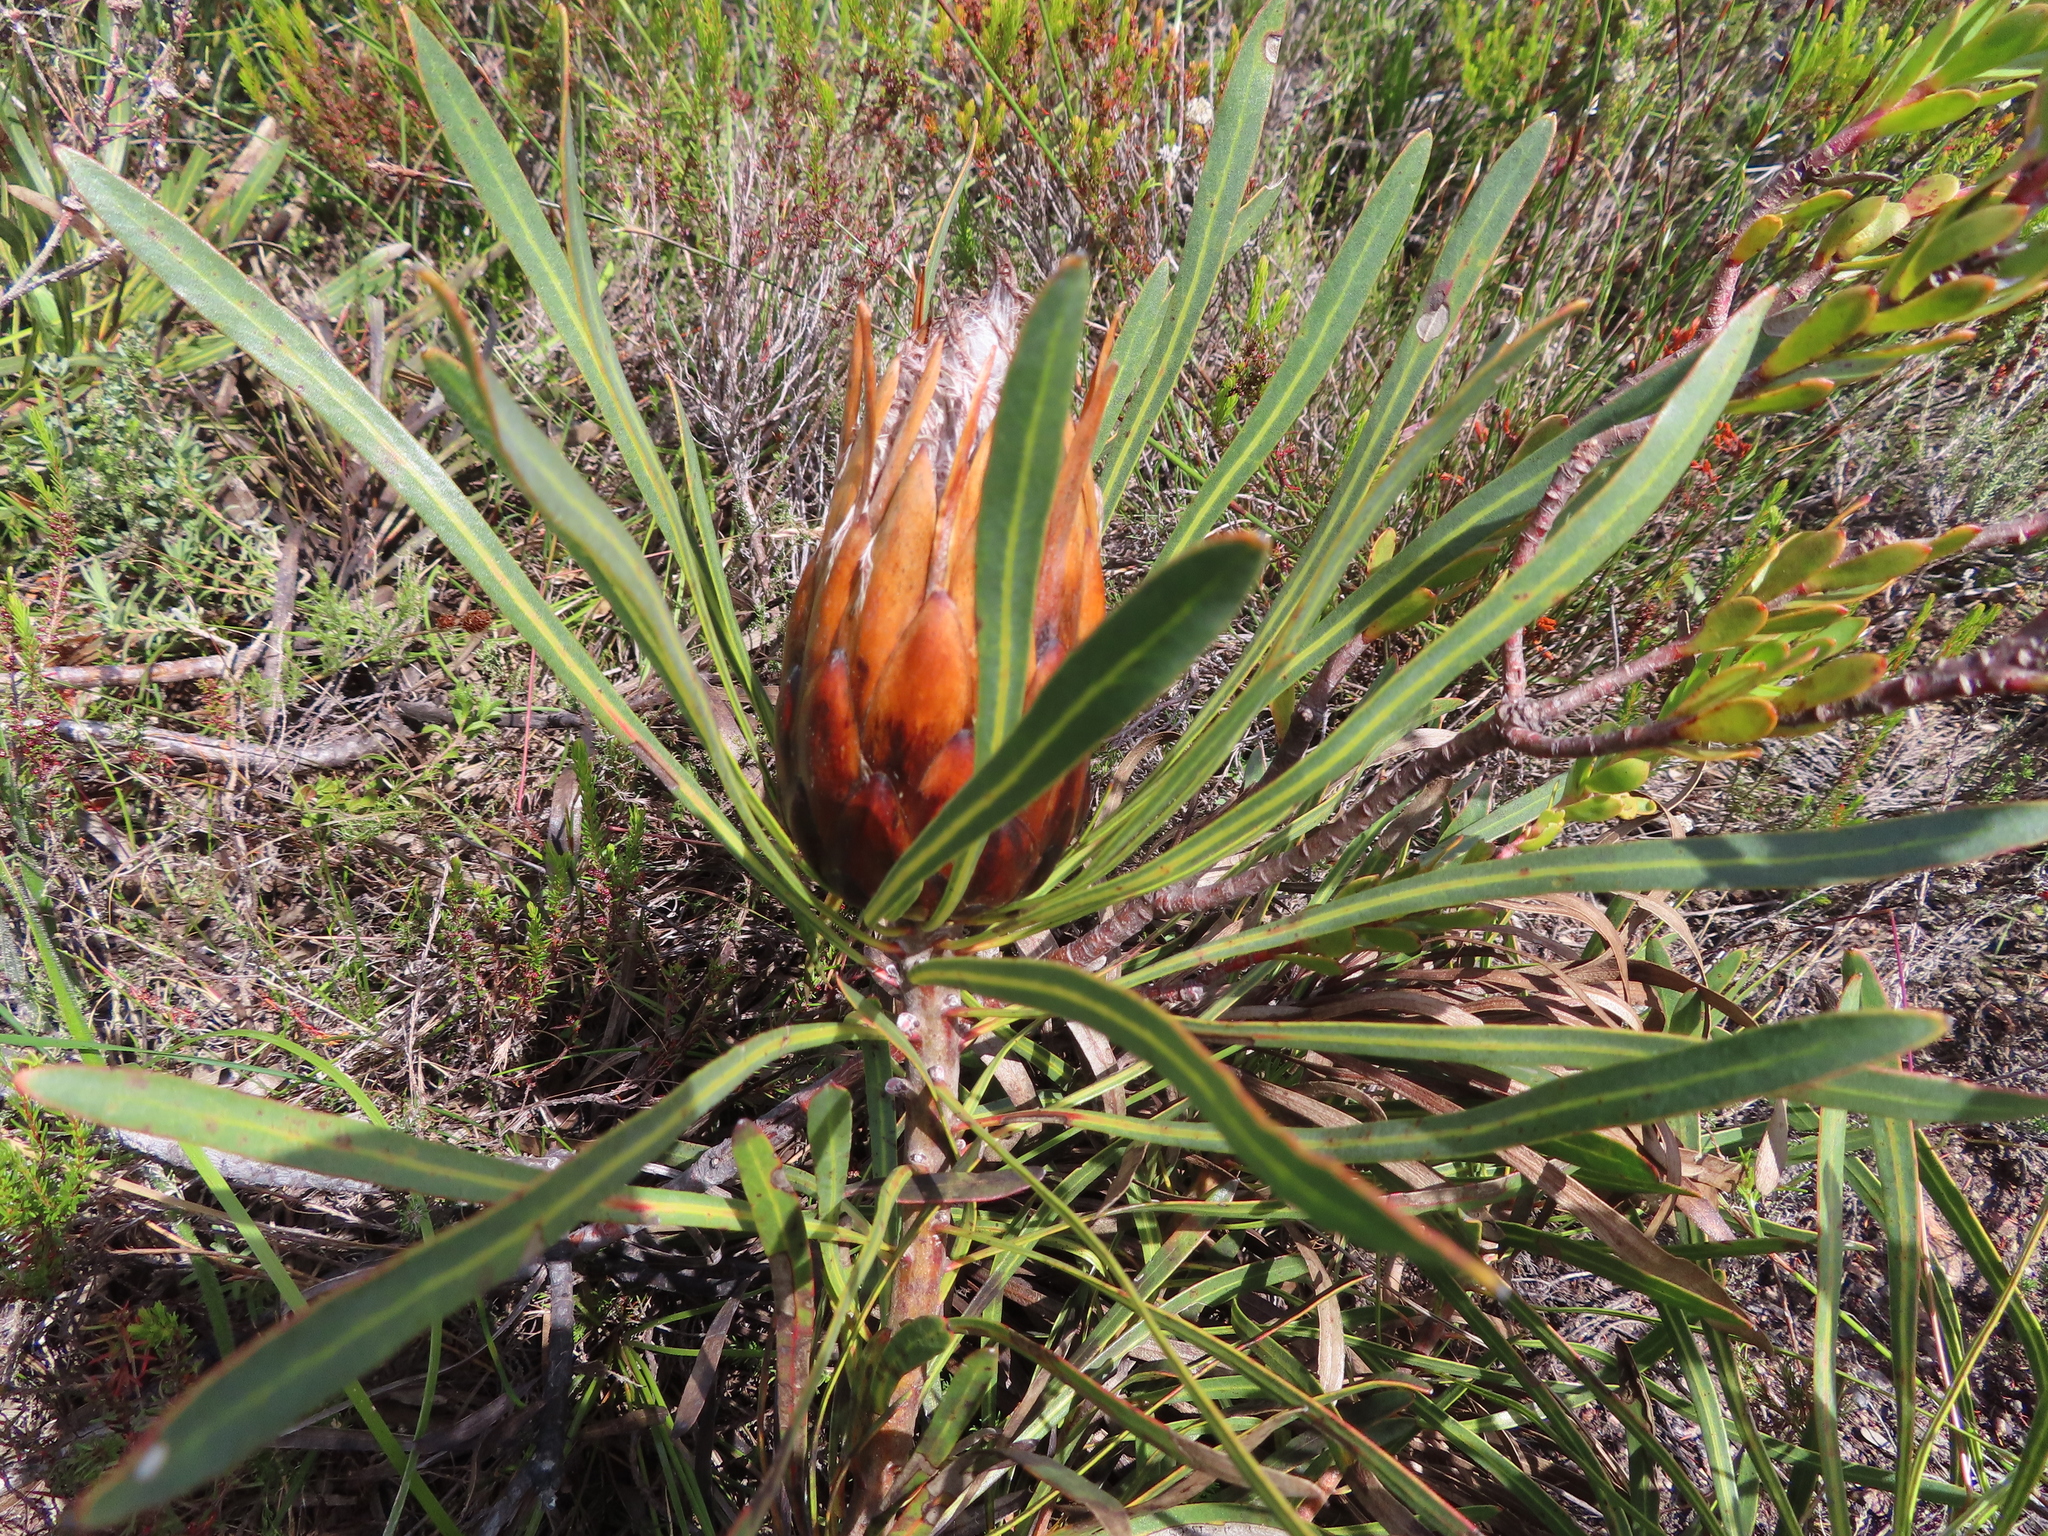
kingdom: Plantae
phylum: Tracheophyta
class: Magnoliopsida
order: Proteales
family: Proteaceae
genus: Protea
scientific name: Protea longifolia
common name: Long-leaf sugarbush
